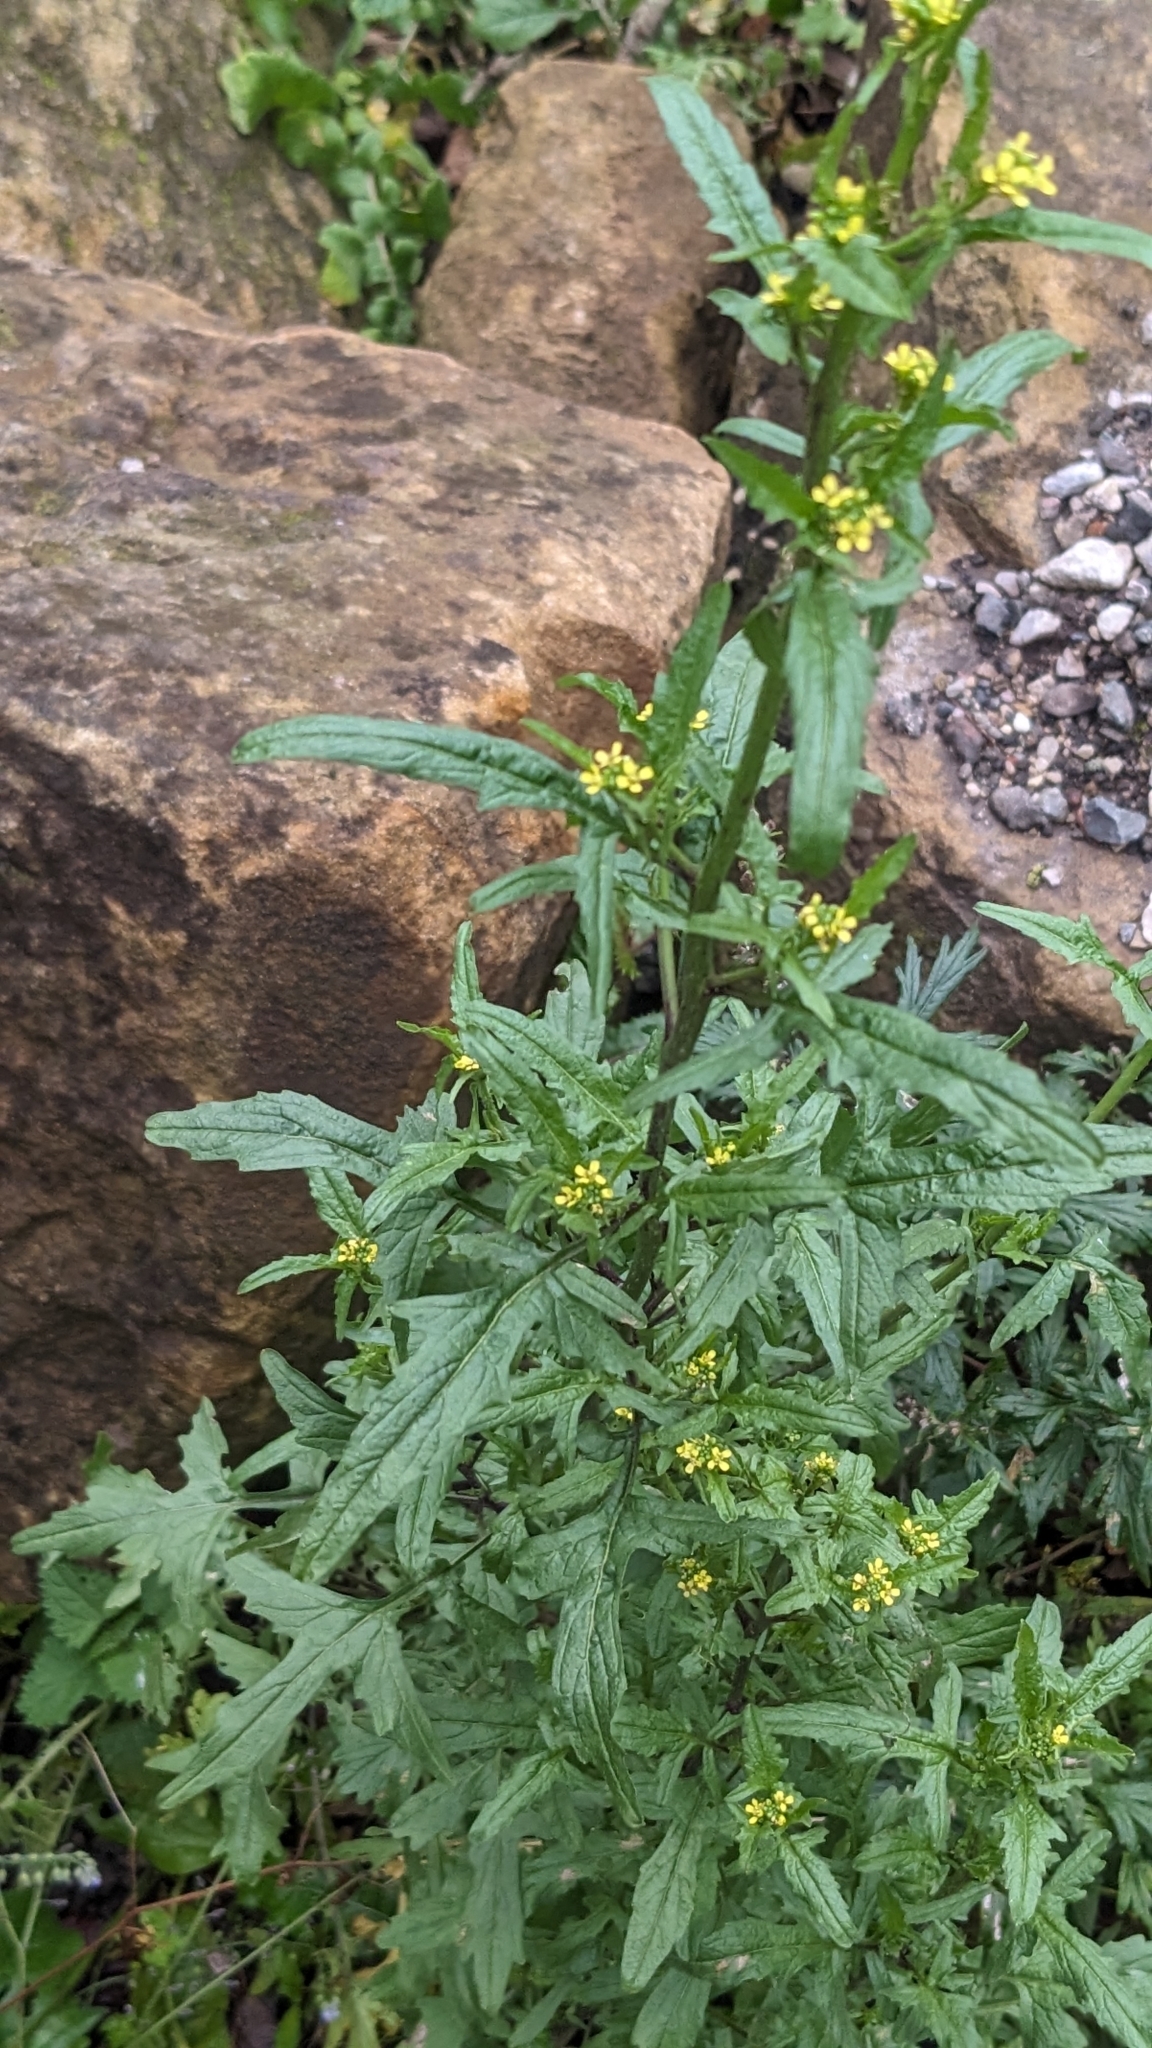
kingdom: Plantae
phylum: Tracheophyta
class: Magnoliopsida
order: Brassicales
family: Brassicaceae
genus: Sisymbrium
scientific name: Sisymbrium officinale
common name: Hedge mustard
